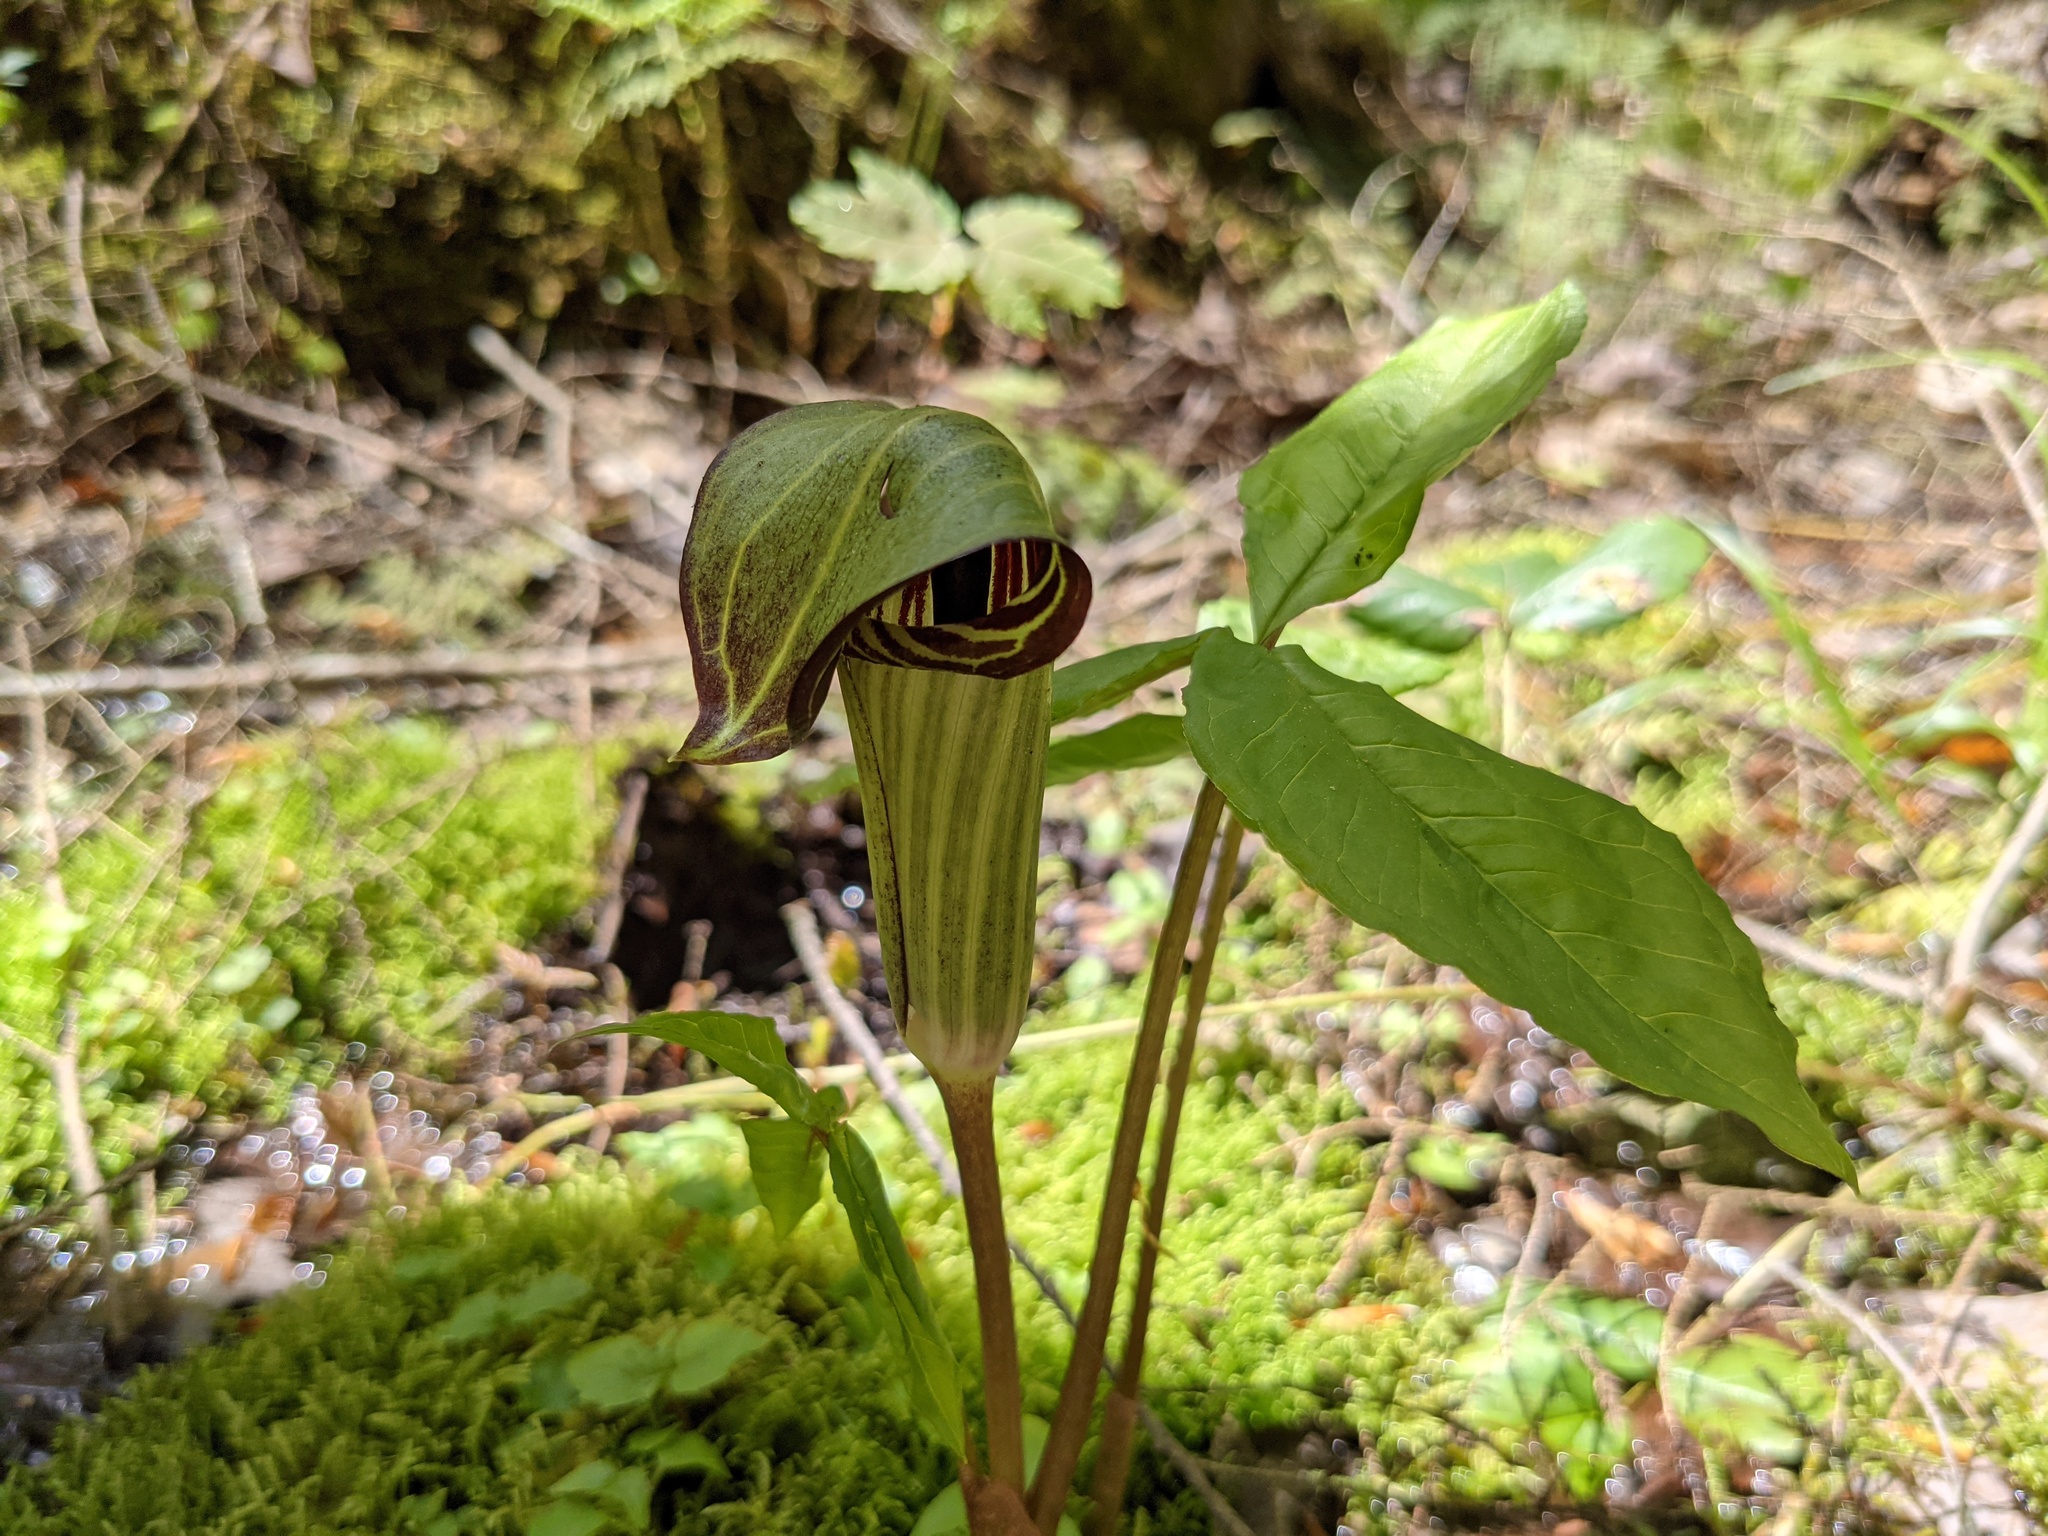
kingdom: Plantae
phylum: Tracheophyta
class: Liliopsida
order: Alismatales
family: Araceae
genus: Arisaema
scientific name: Arisaema triphyllum
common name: Jack-in-the-pulpit
